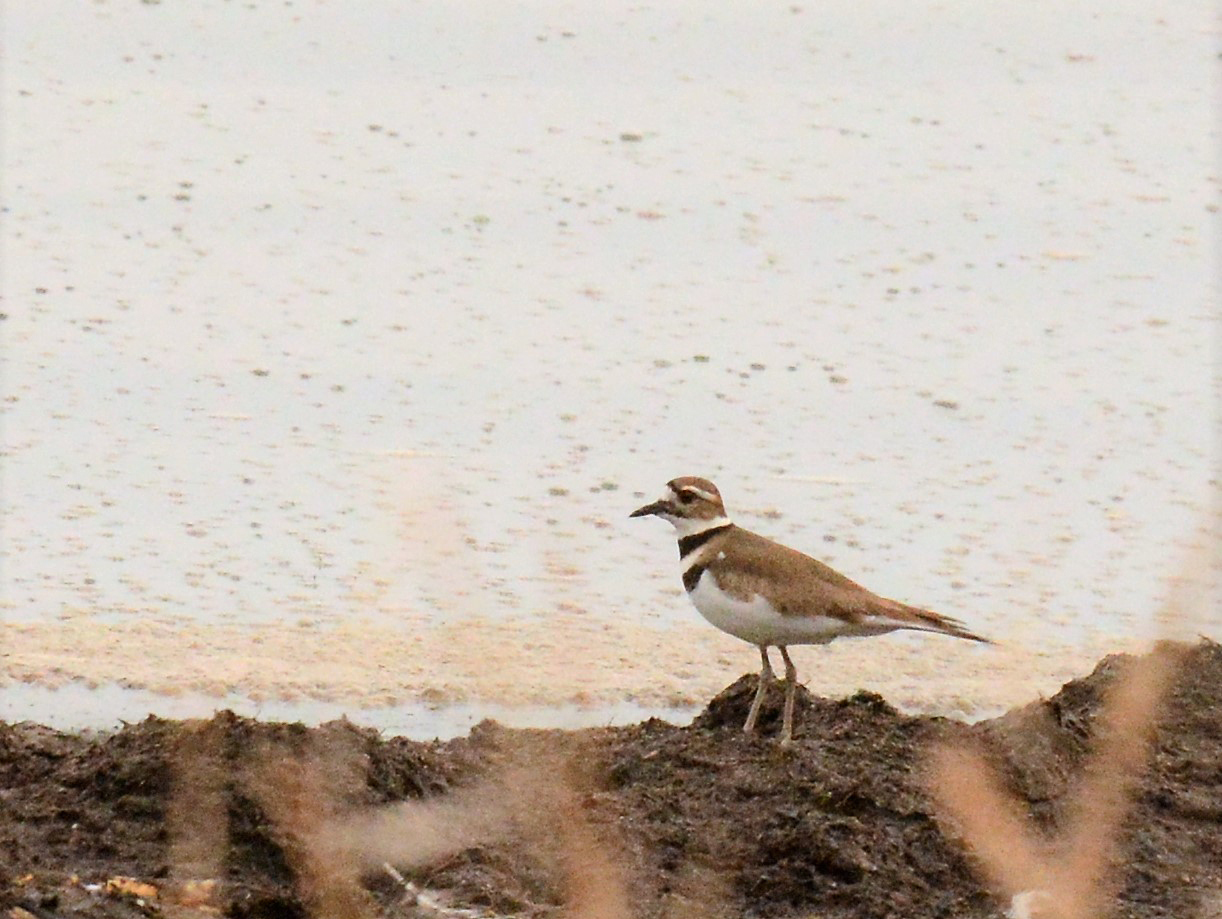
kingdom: Animalia
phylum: Chordata
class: Aves
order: Charadriiformes
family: Charadriidae
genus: Charadrius
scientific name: Charadrius vociferus
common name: Killdeer
